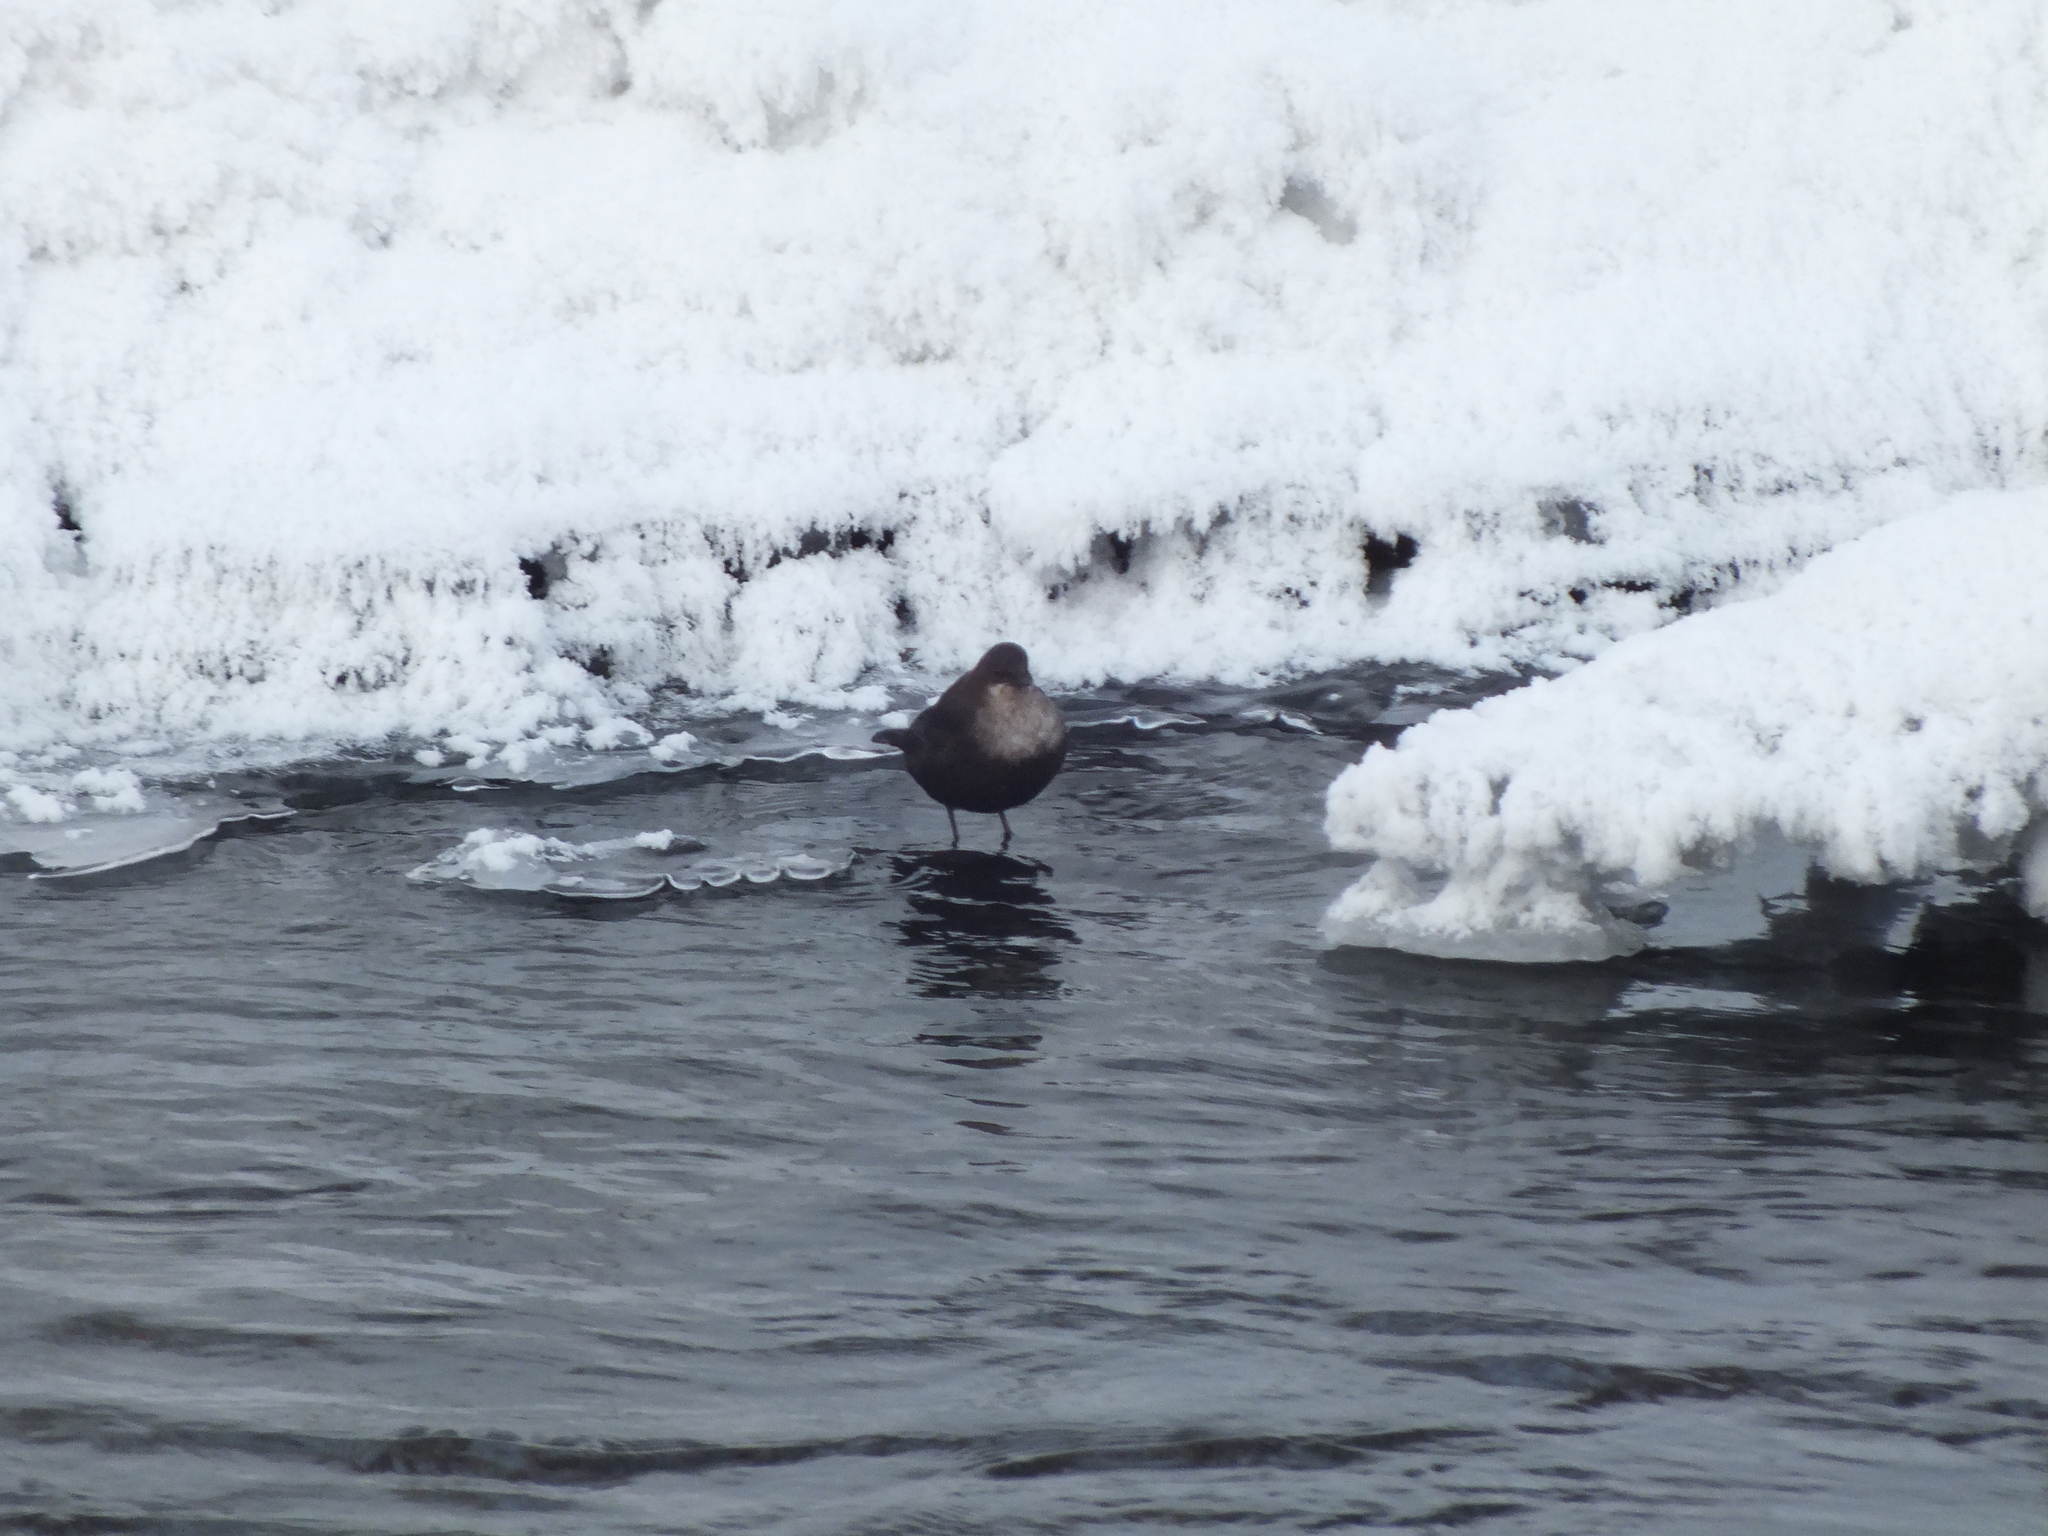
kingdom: Animalia
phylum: Chordata
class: Aves
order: Passeriformes
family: Cinclidae
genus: Cinclus
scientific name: Cinclus cinclus
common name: White-throated dipper
